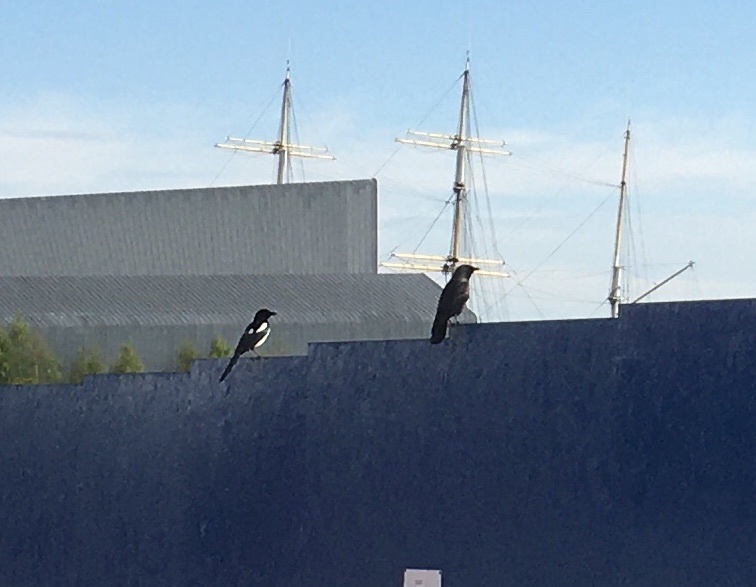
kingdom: Animalia
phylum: Chordata
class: Aves
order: Passeriformes
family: Corvidae
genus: Coloeus
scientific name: Coloeus monedula
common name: Western jackdaw
